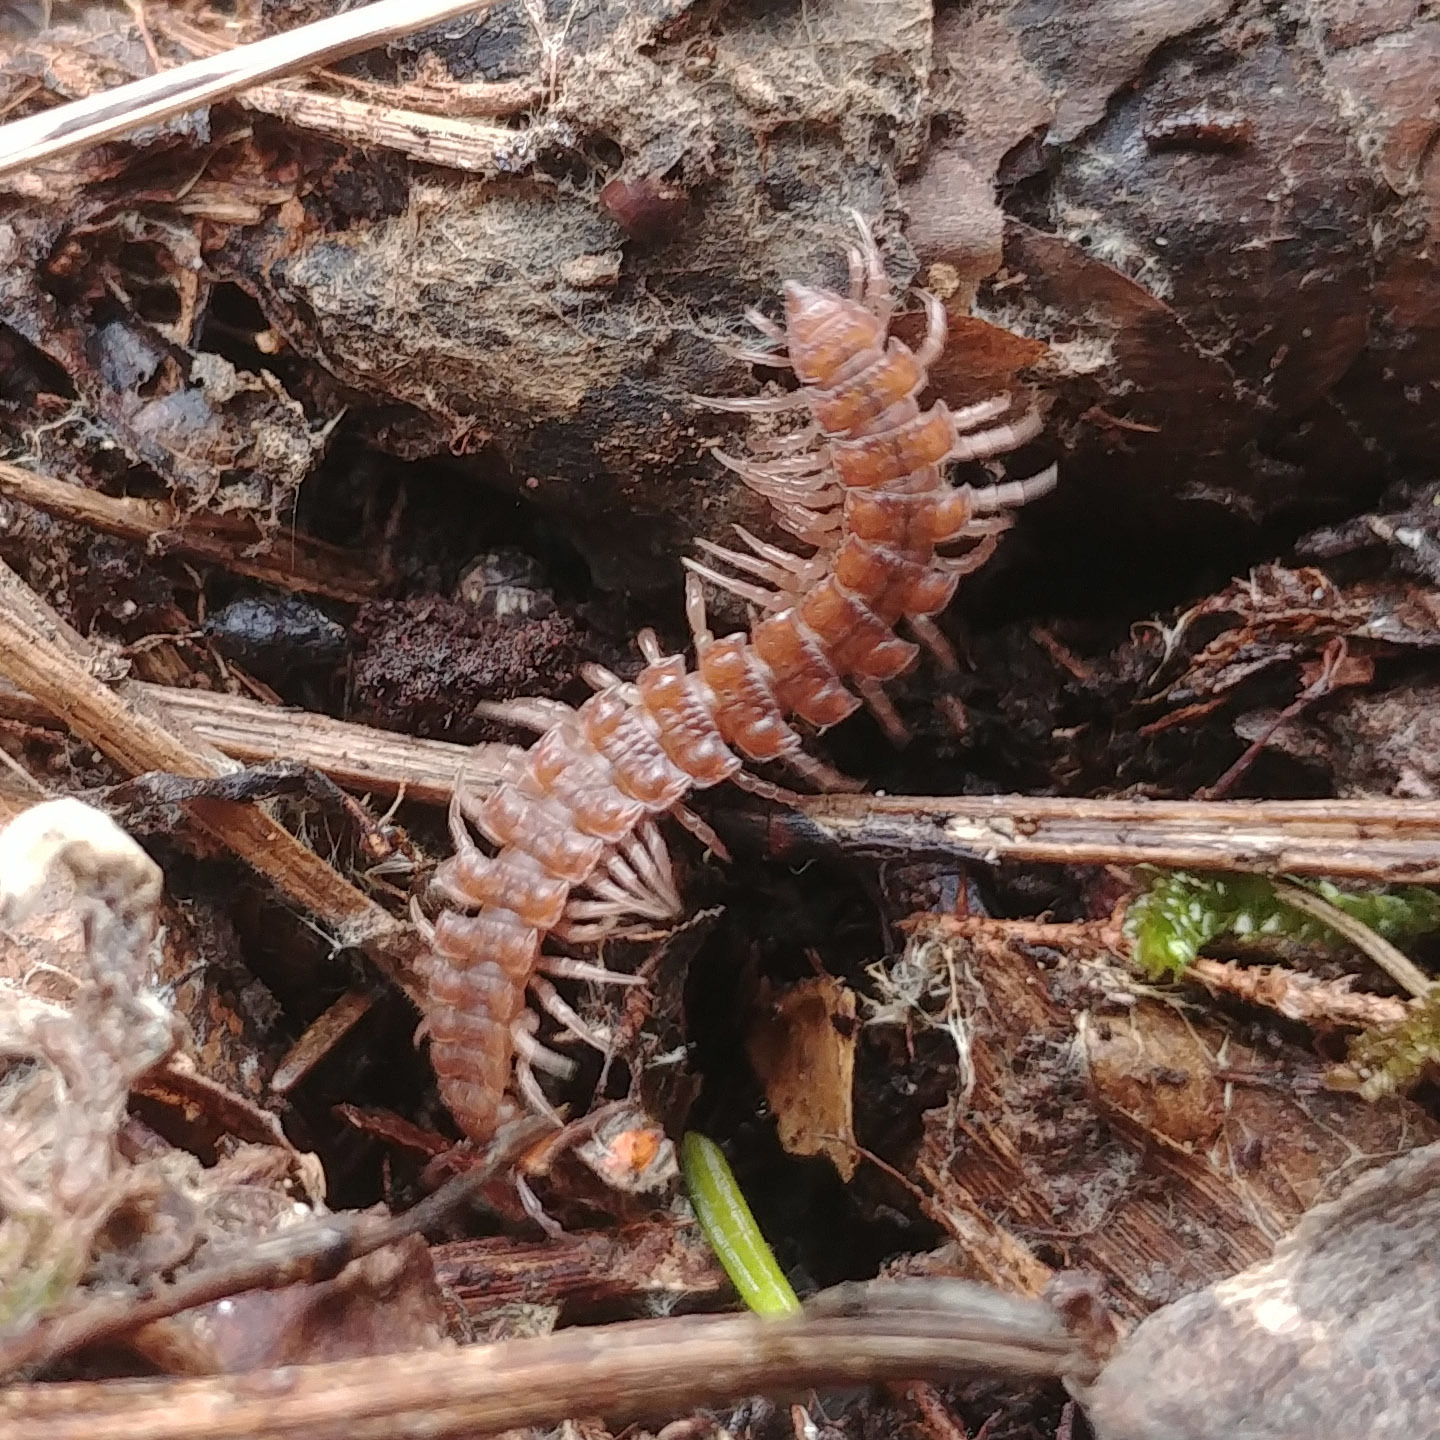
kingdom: Animalia
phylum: Arthropoda
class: Diplopoda
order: Polydesmida
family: Polydesmidae
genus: Polydesmus
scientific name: Polydesmus angustus
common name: Flat millipede
